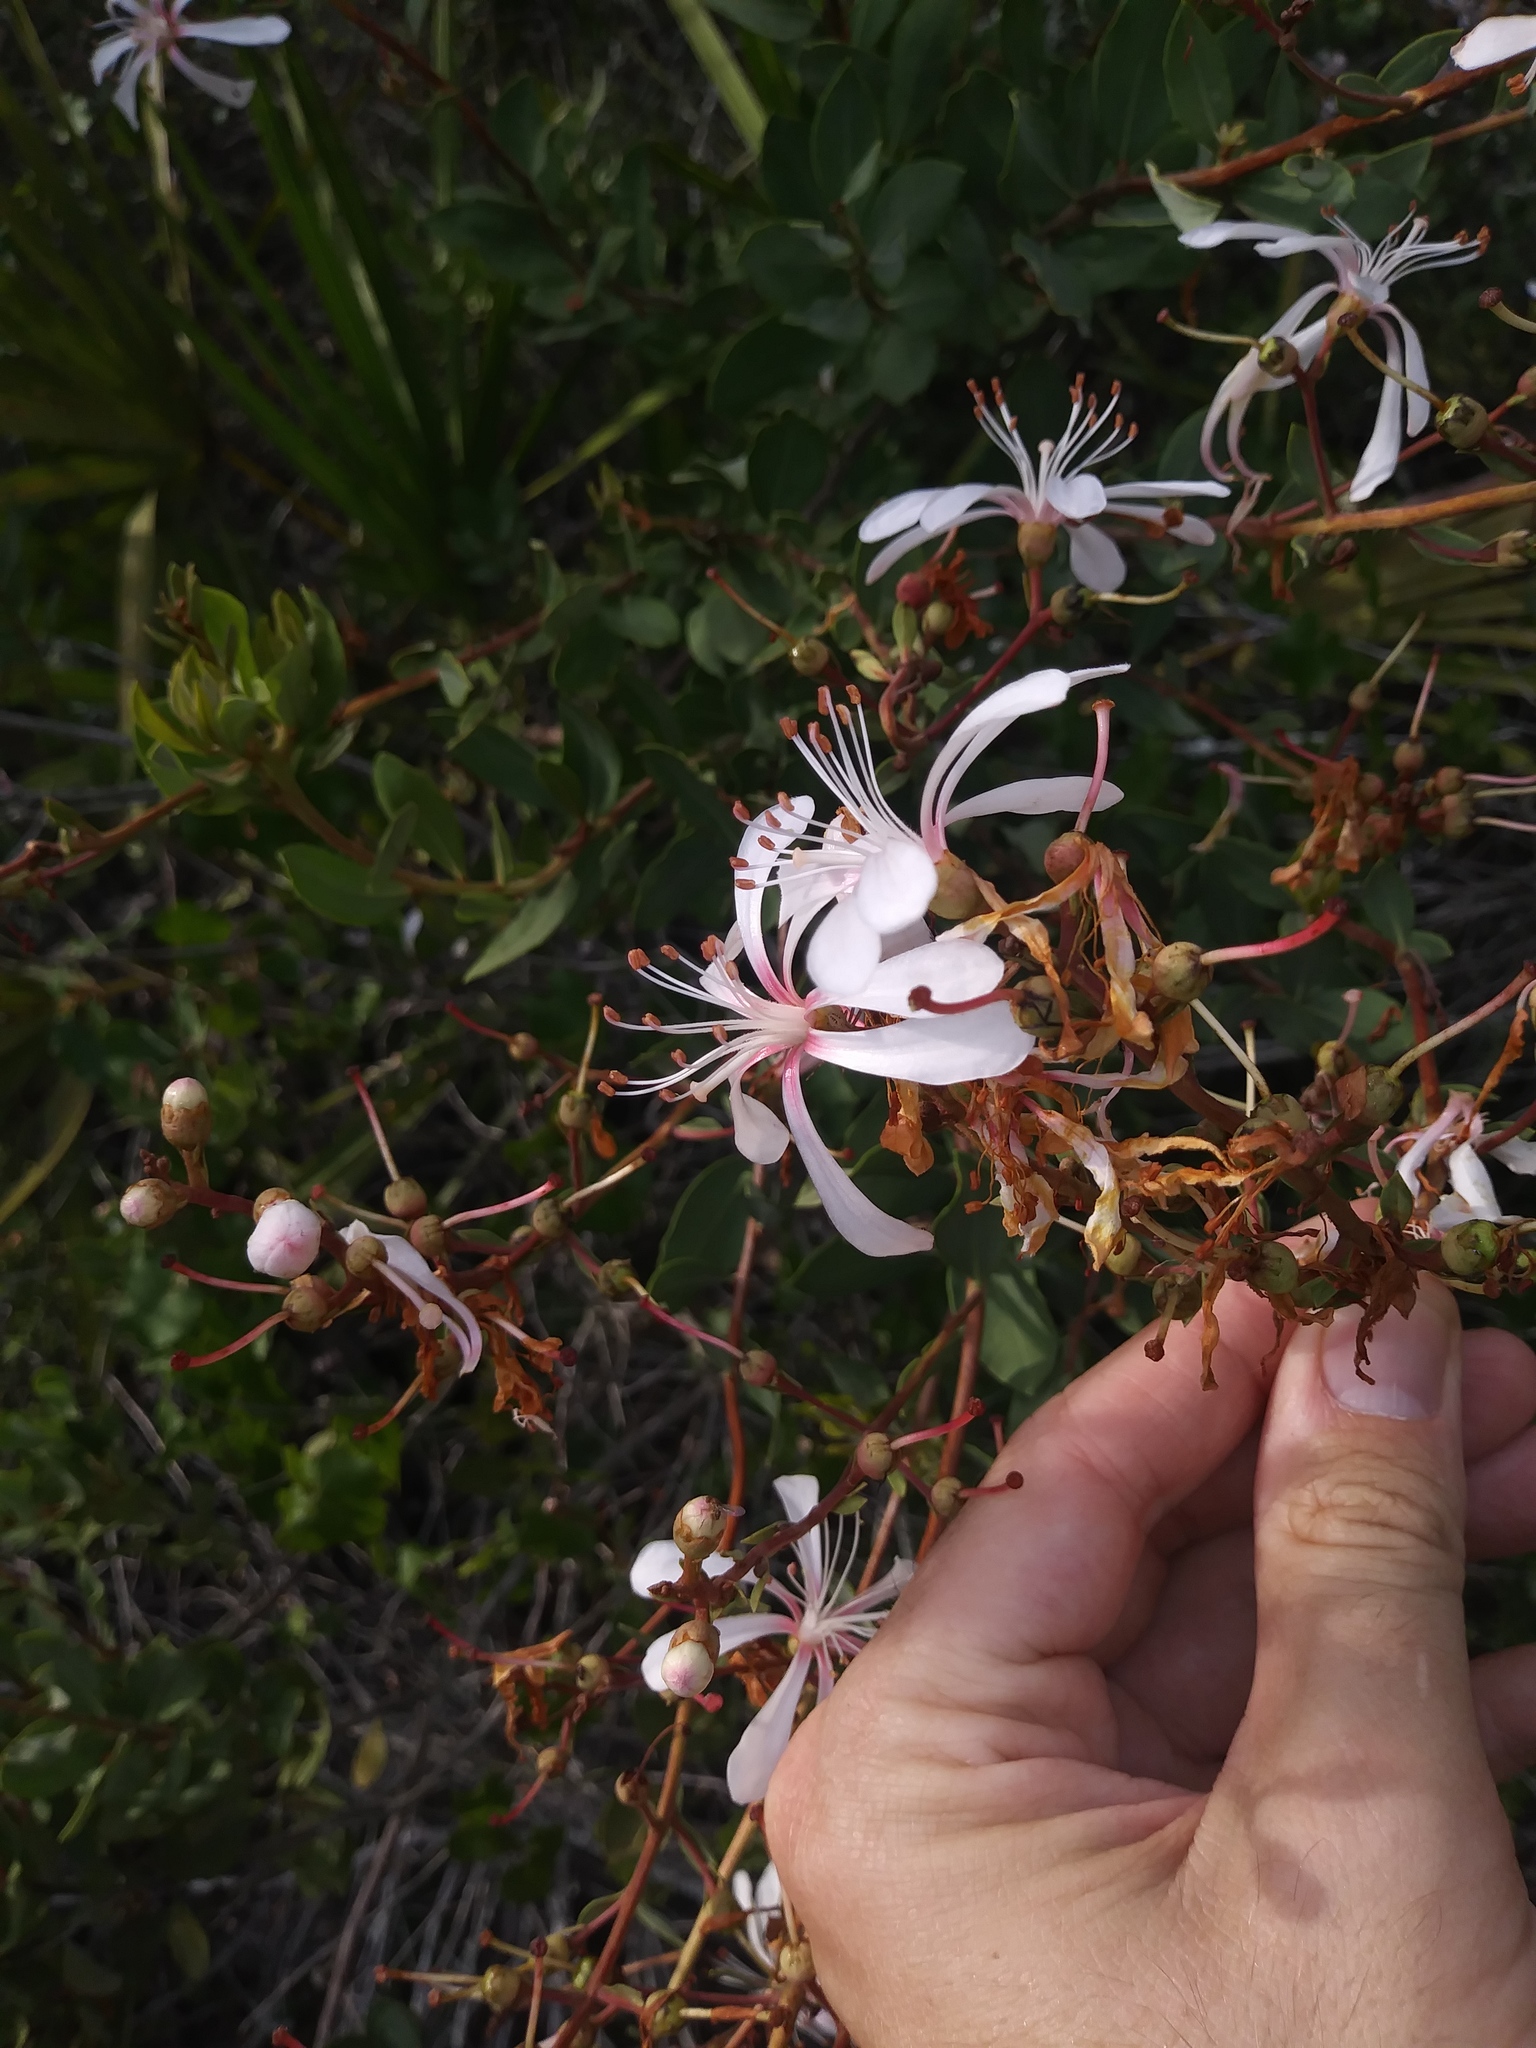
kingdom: Plantae
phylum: Tracheophyta
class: Magnoliopsida
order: Ericales
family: Ericaceae
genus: Bejaria
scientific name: Bejaria racemosa
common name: Tarflower
